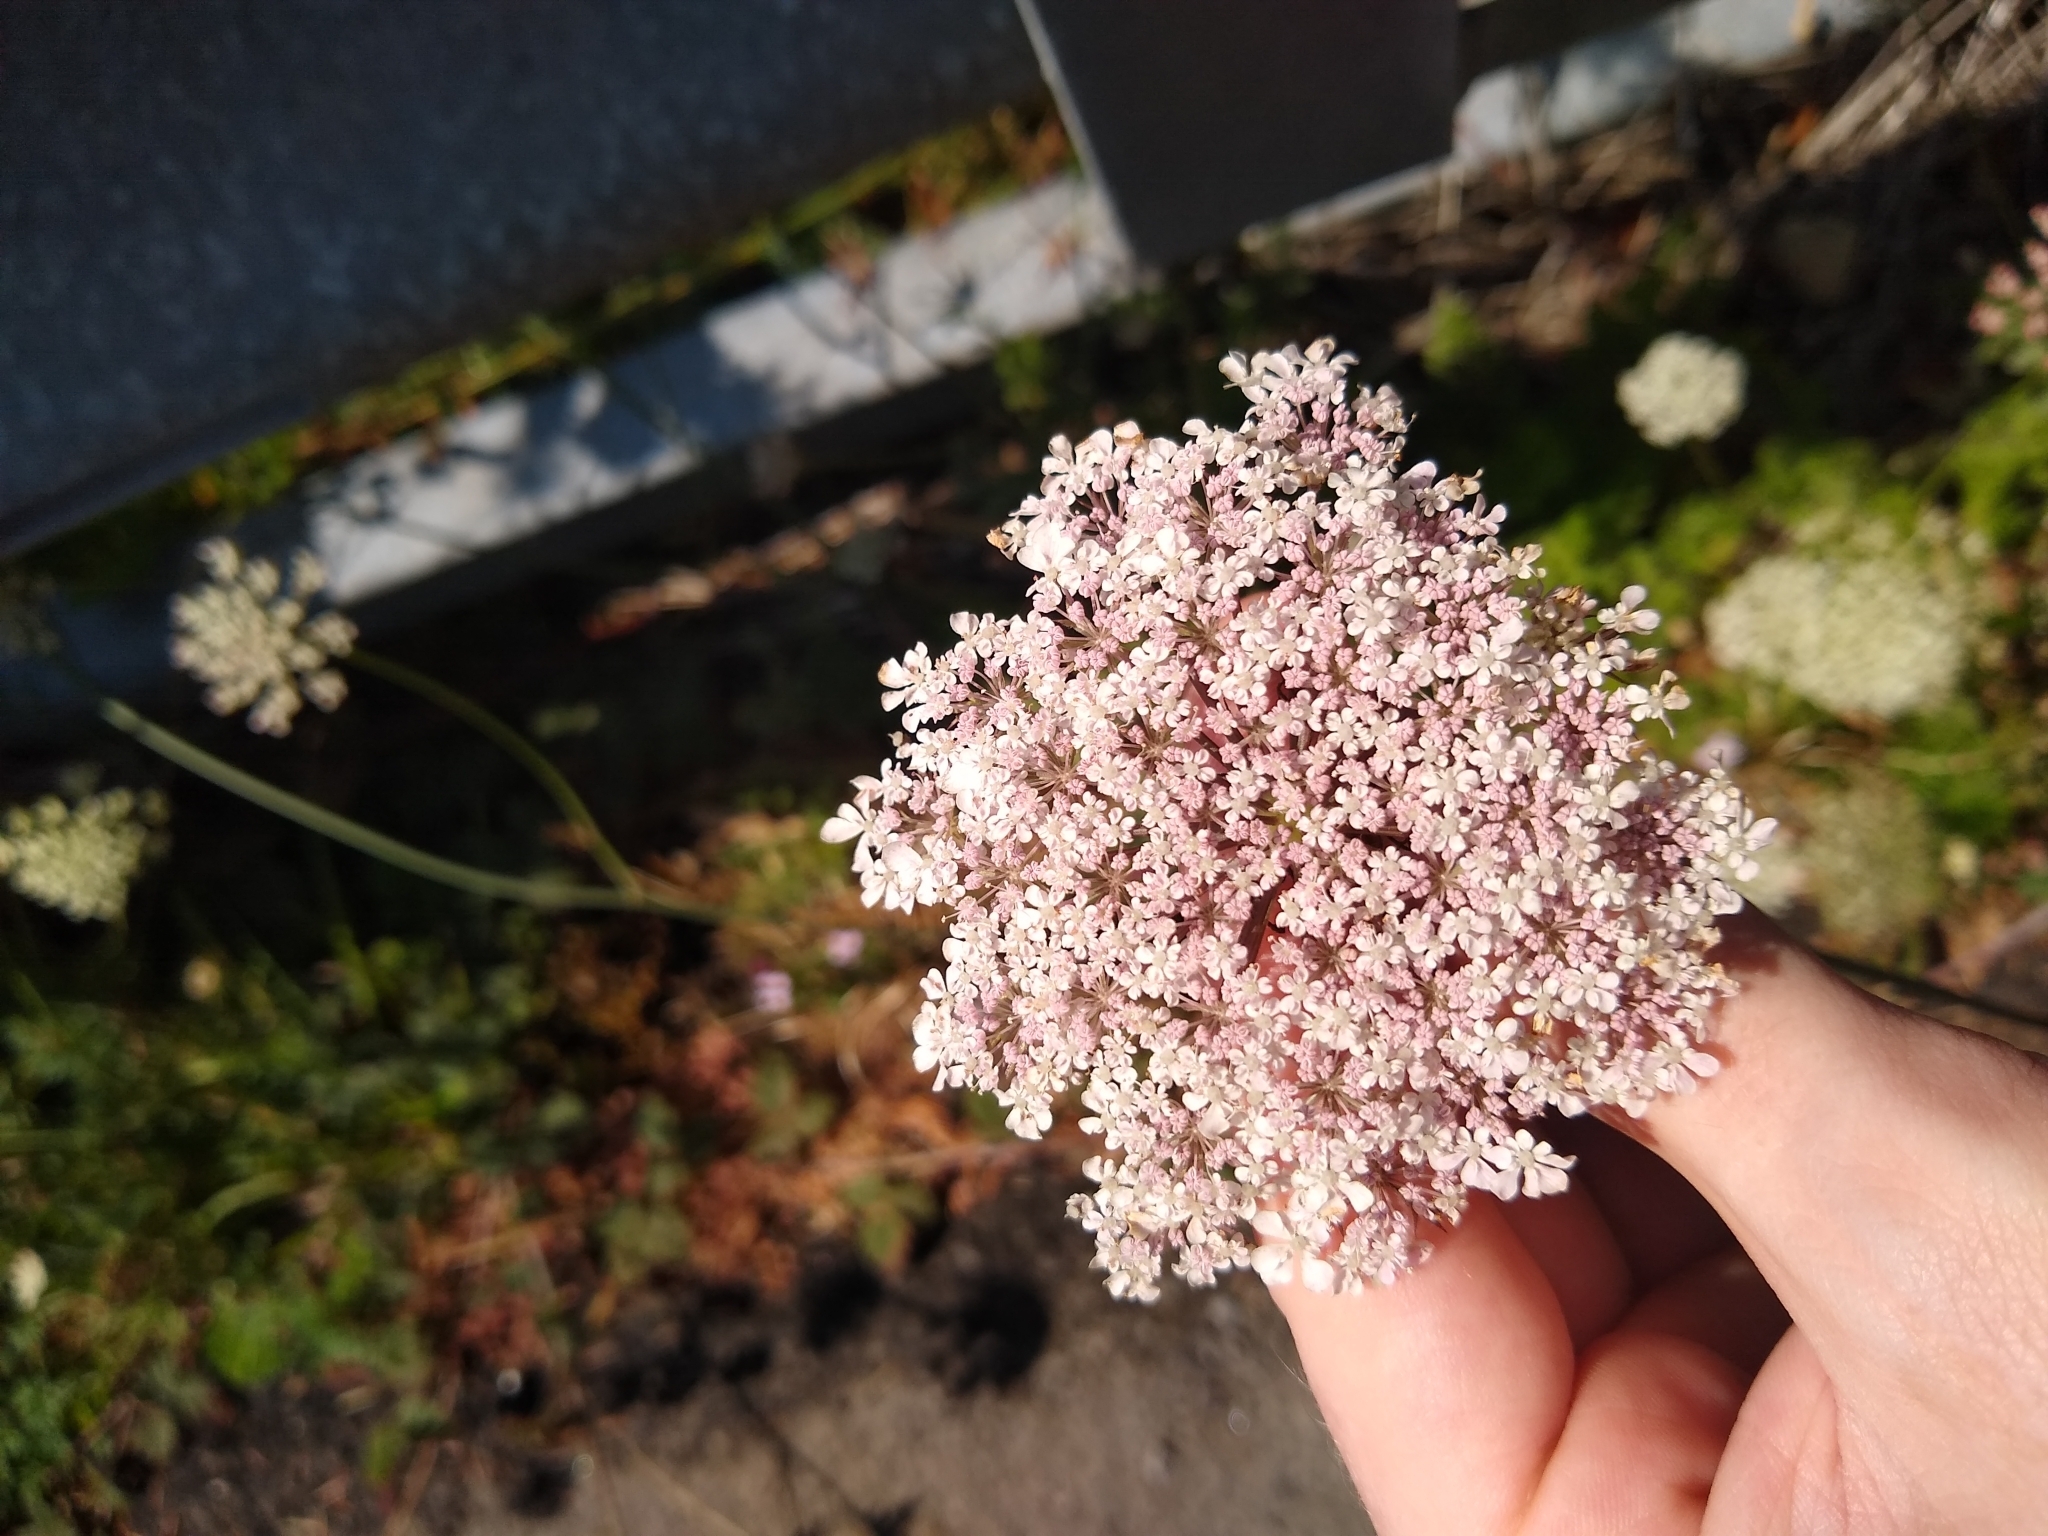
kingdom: Plantae
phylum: Tracheophyta
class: Magnoliopsida
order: Apiales
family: Apiaceae
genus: Daucus
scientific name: Daucus carota
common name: Wild carrot
